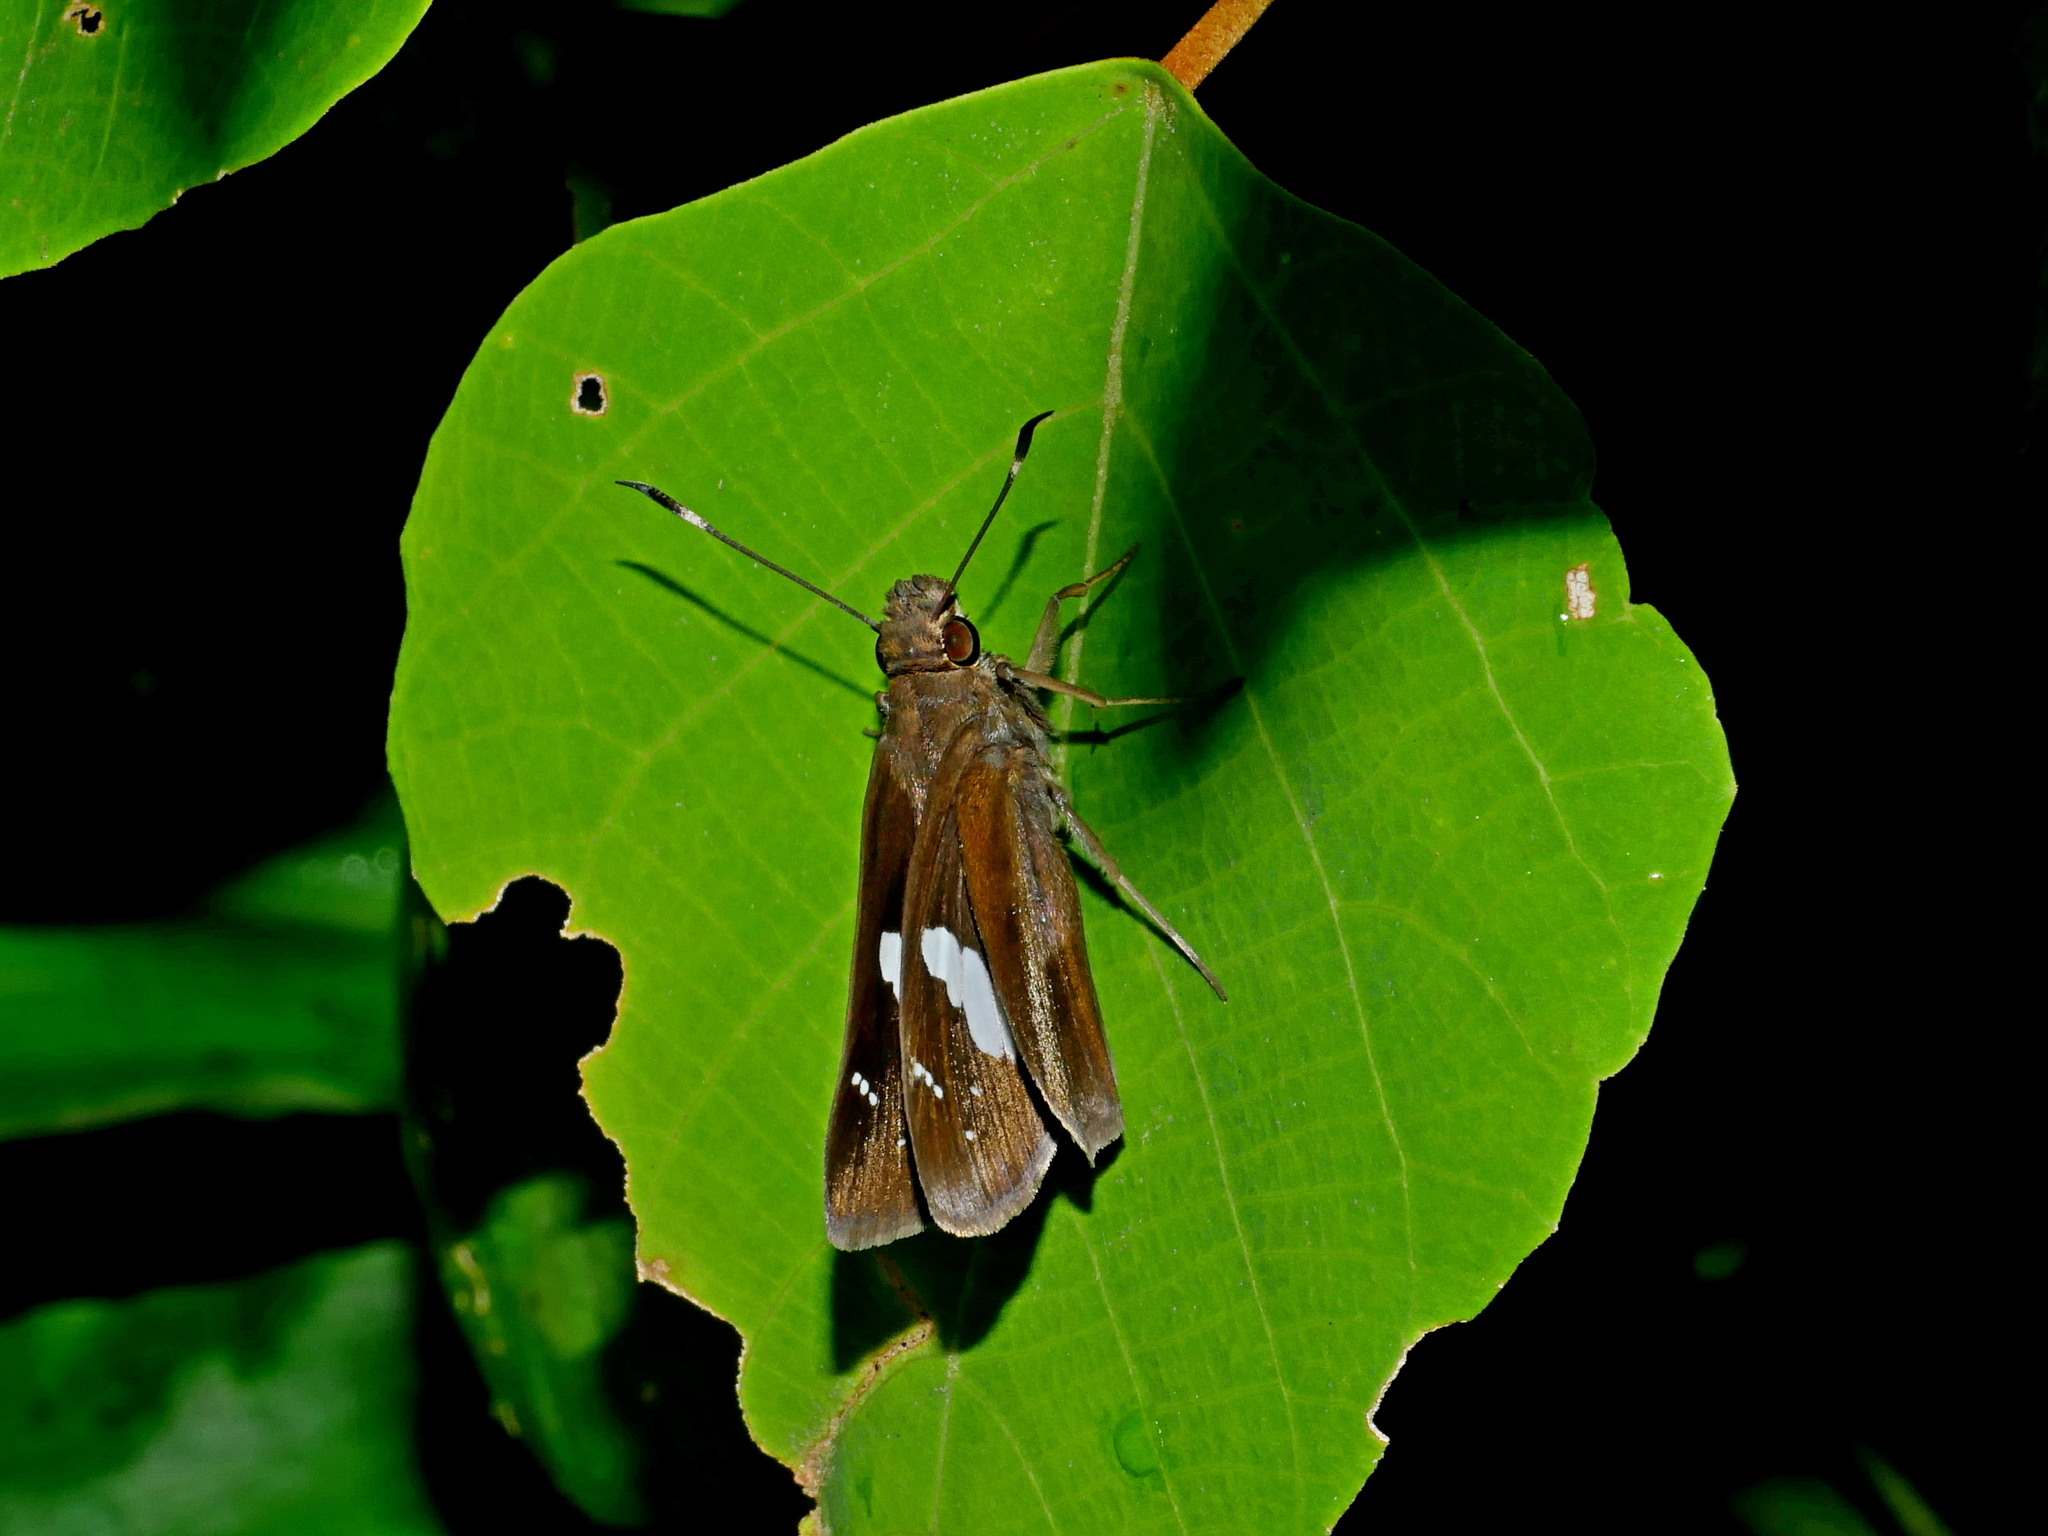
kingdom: Animalia
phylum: Arthropoda
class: Insecta
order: Lepidoptera
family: Hesperiidae
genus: Notocrypta
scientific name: Notocrypta curvifascia
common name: Restricted demon
